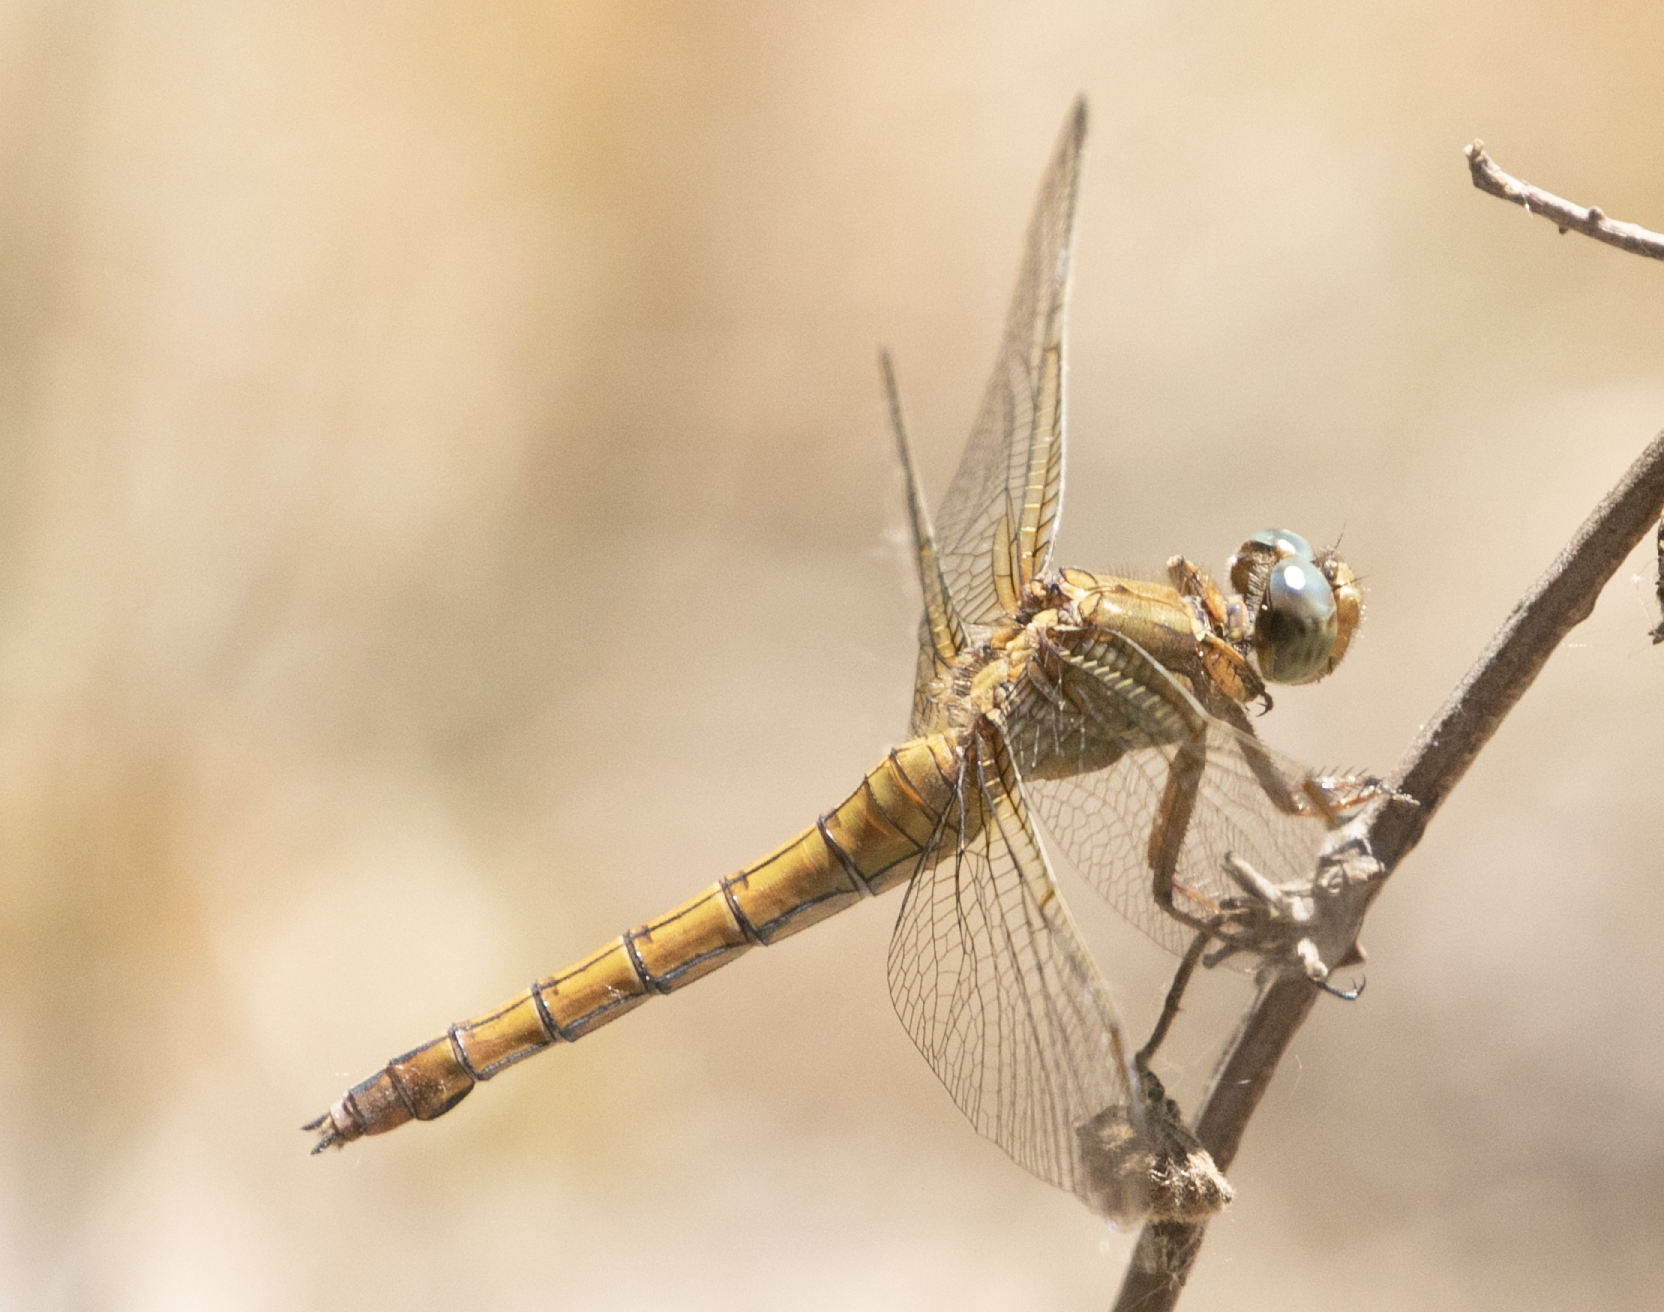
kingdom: Animalia
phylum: Arthropoda
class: Insecta
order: Odonata
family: Libellulidae
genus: Orthetrum
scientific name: Orthetrum coerulescens
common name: Keeled skimmer
